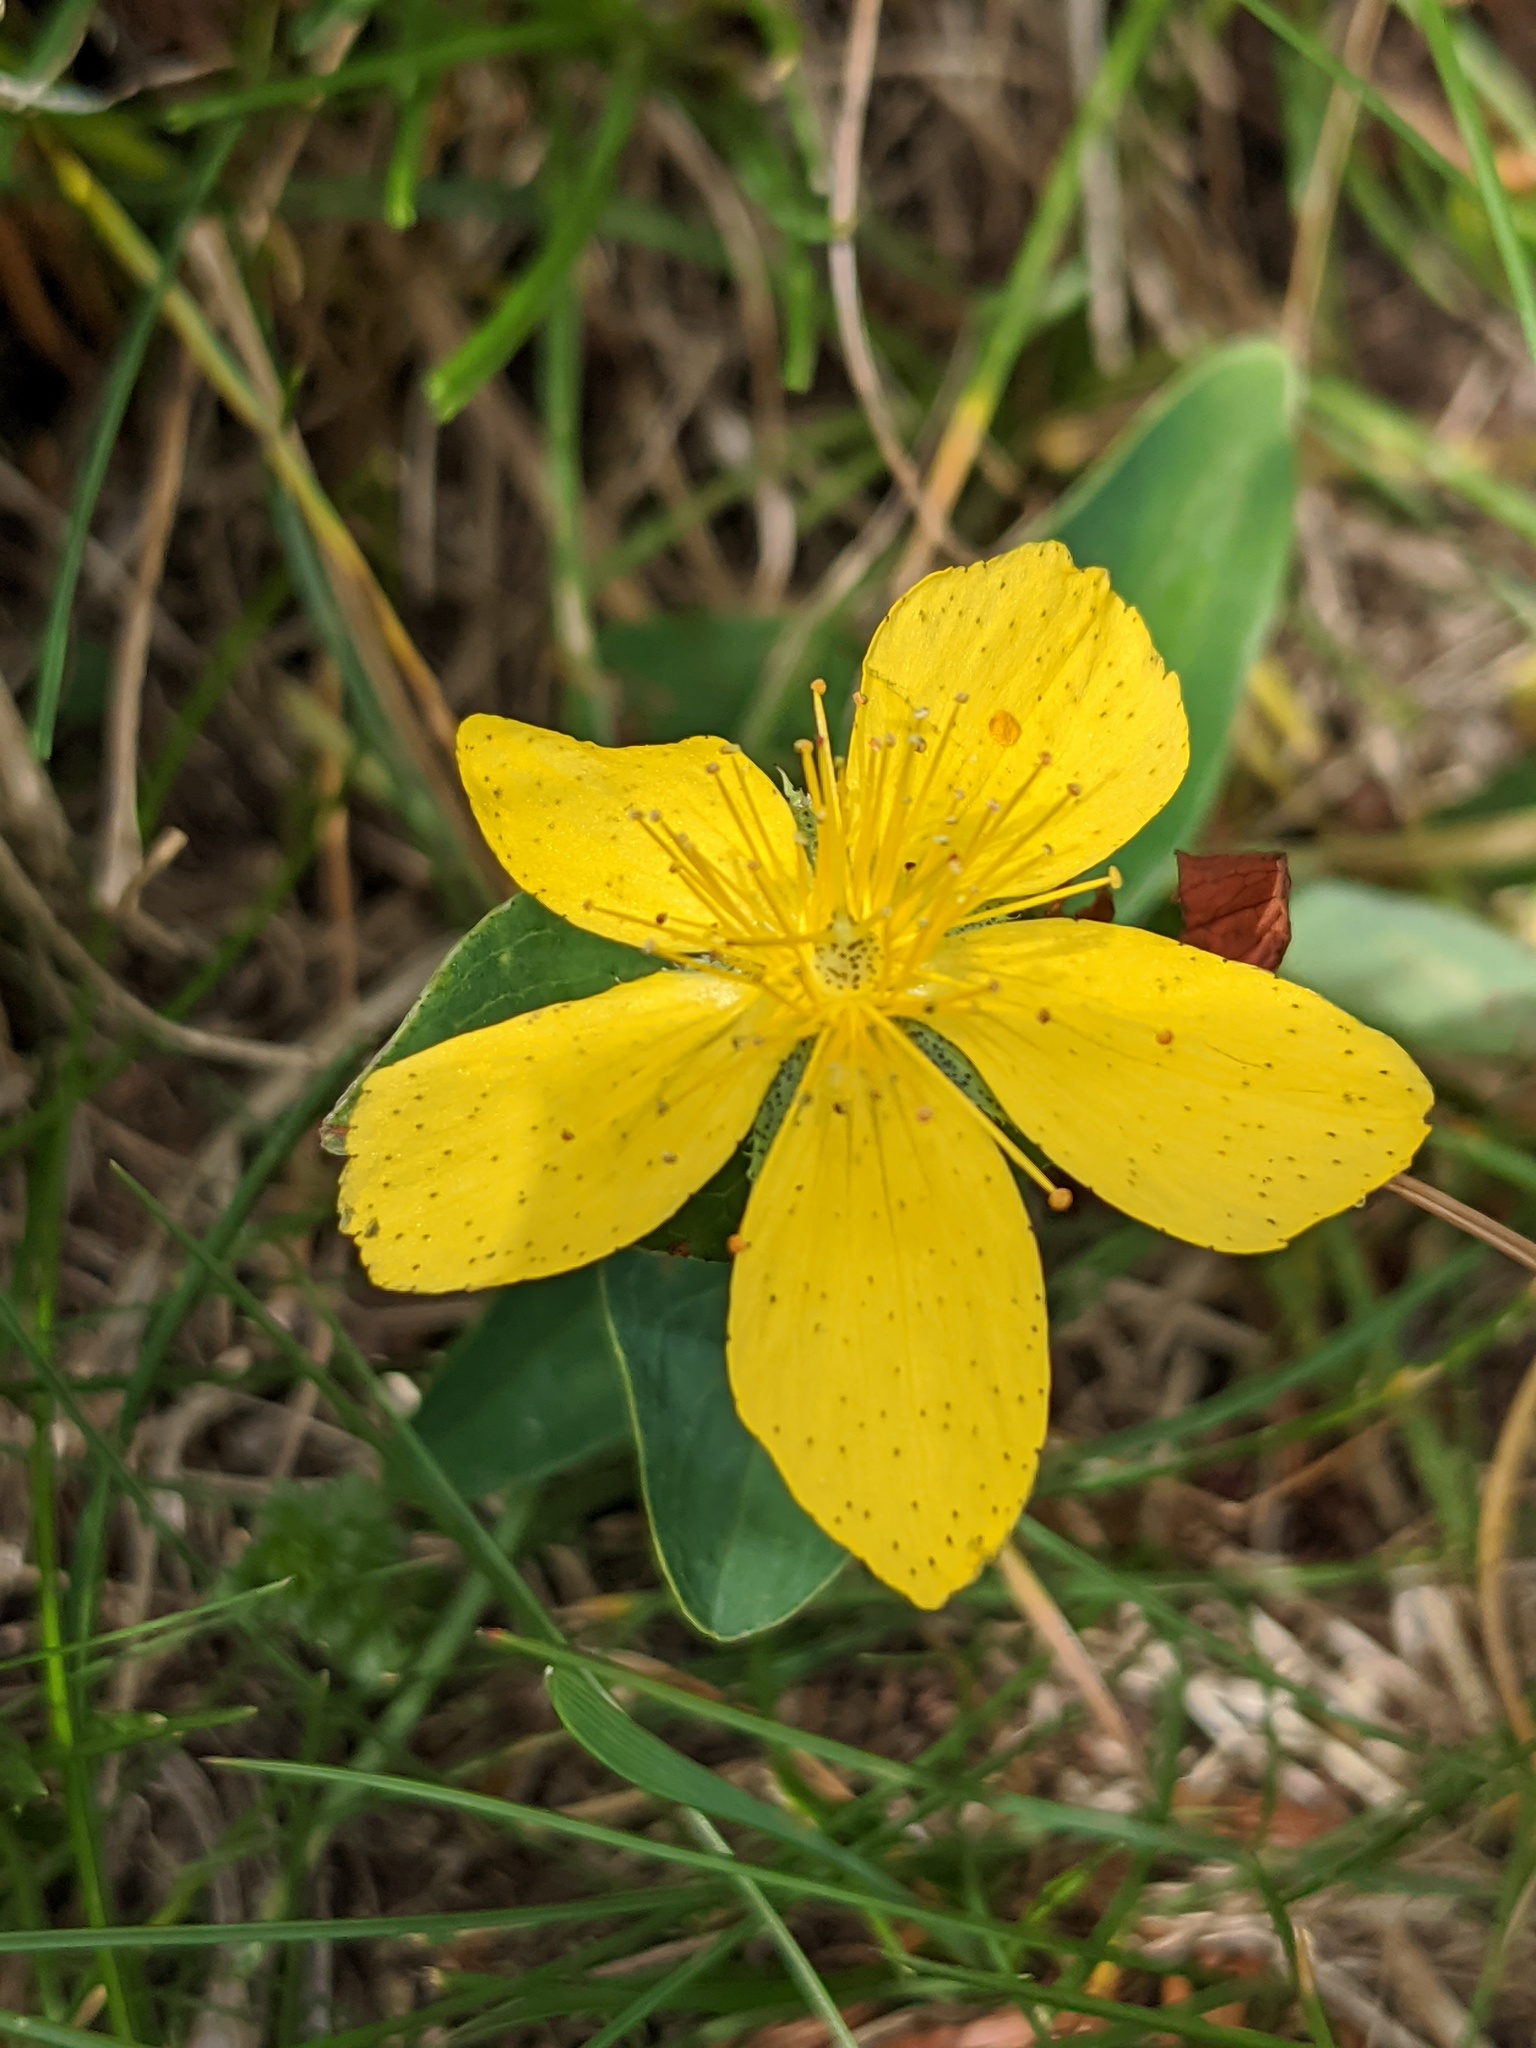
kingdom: Plantae
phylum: Tracheophyta
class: Magnoliopsida
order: Malpighiales
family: Hypericaceae
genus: Hypericum
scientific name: Hypericum richeri
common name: Alpine st john's-wort
